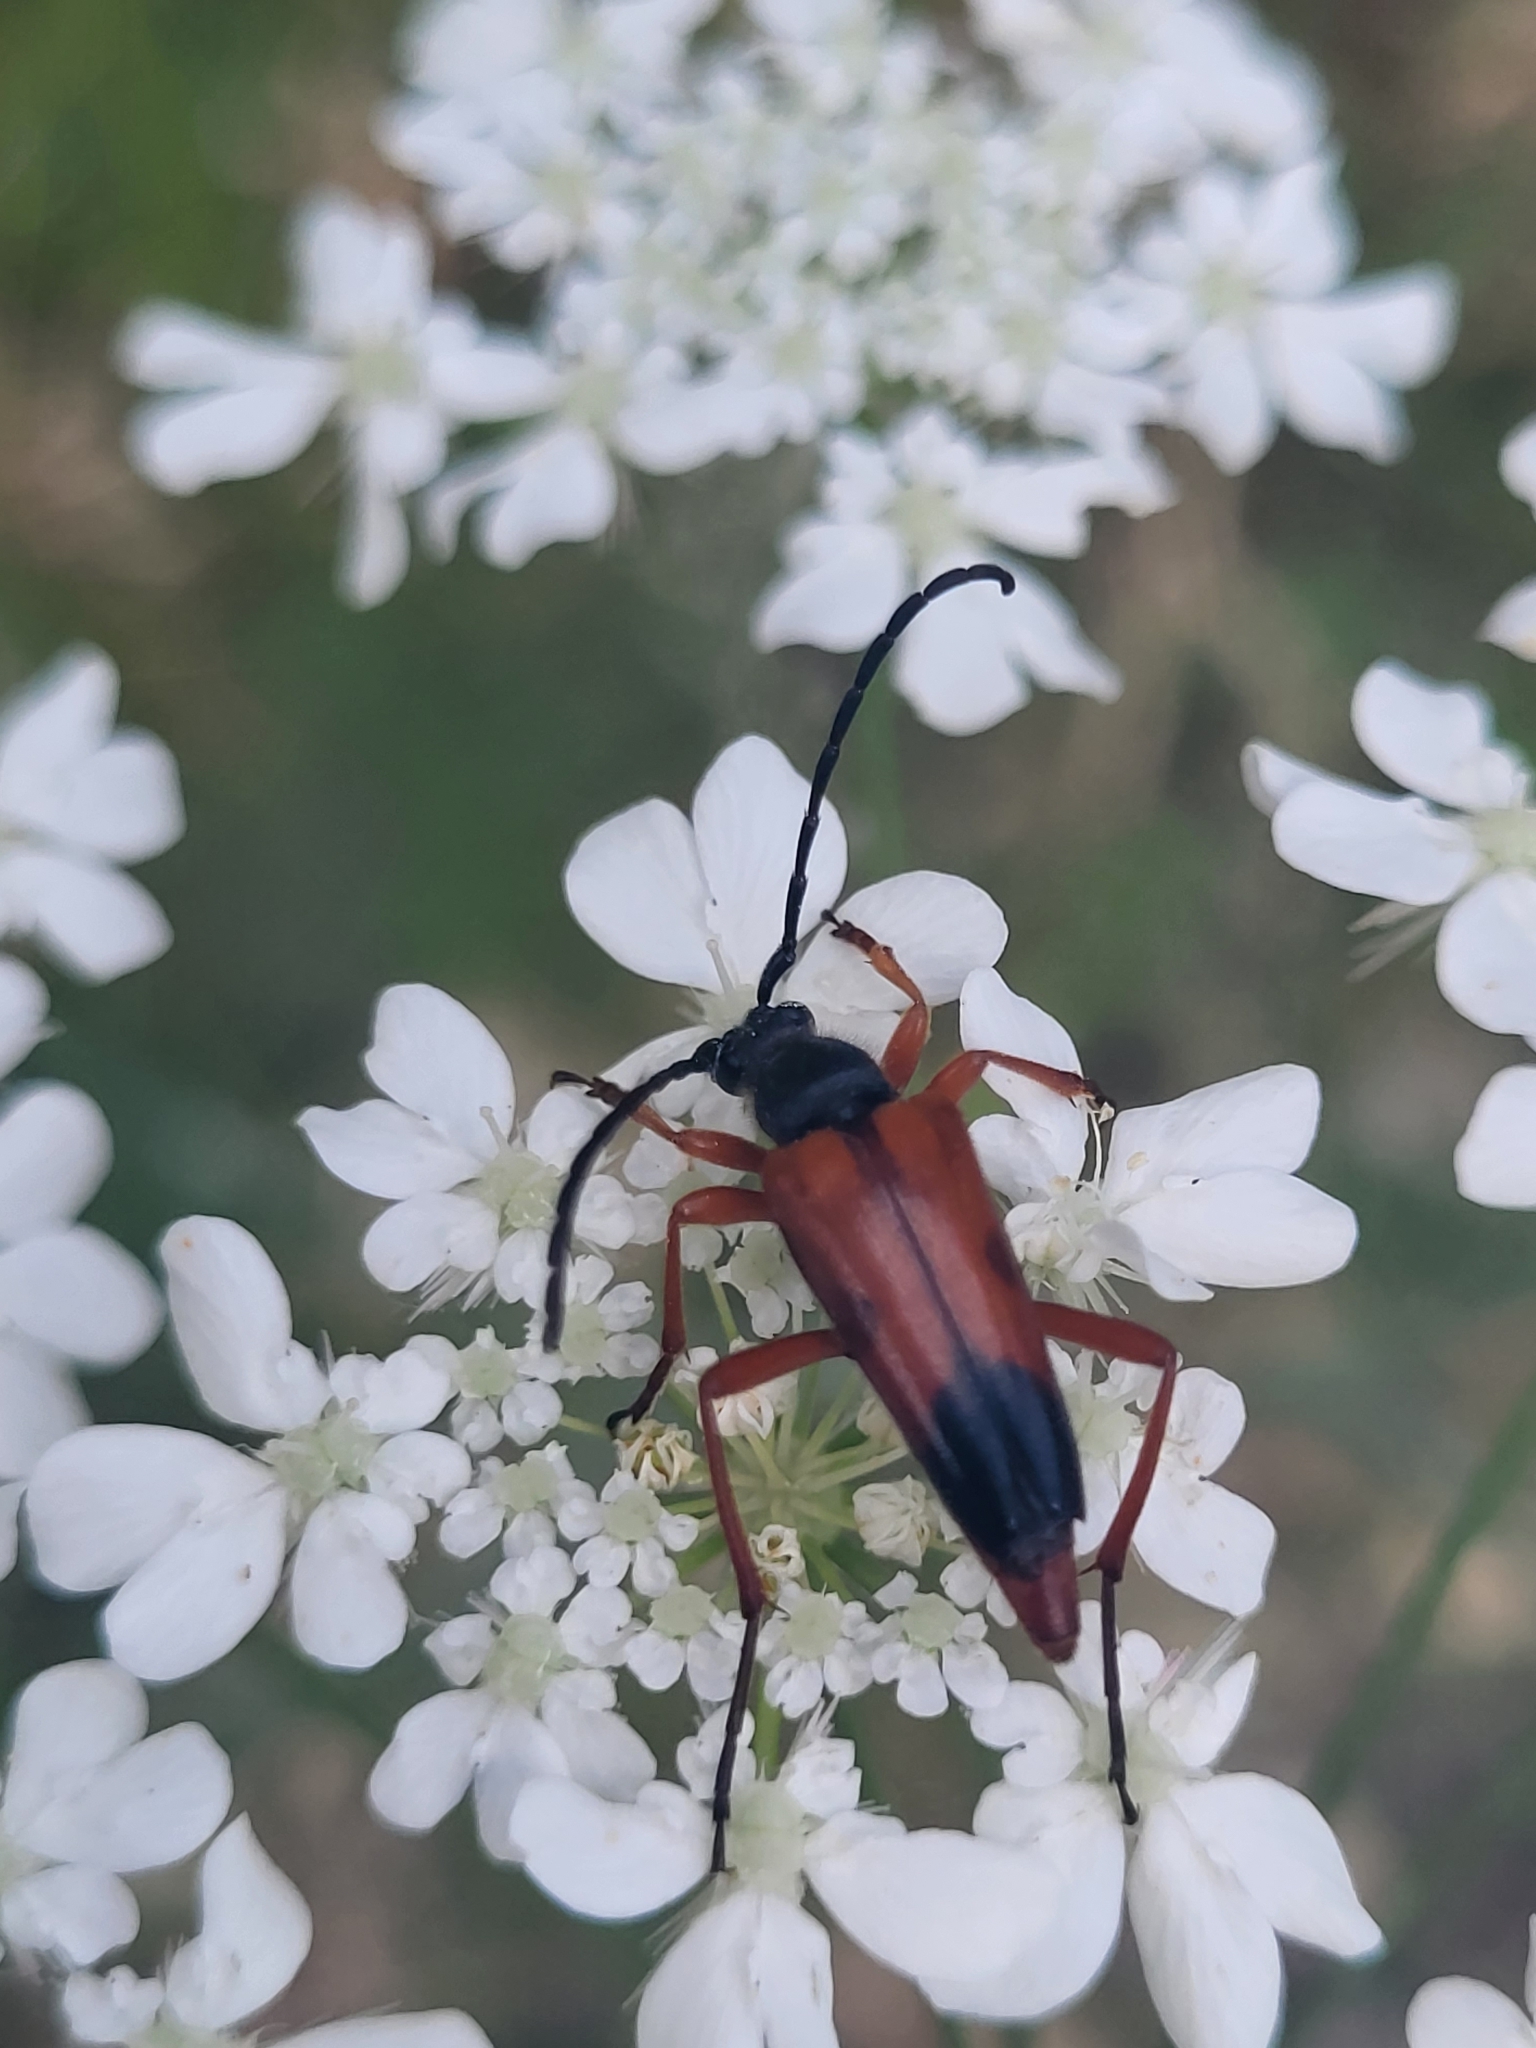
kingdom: Animalia
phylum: Arthropoda
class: Insecta
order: Coleoptera
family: Cerambycidae
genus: Stictoleptura
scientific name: Stictoleptura rufa
